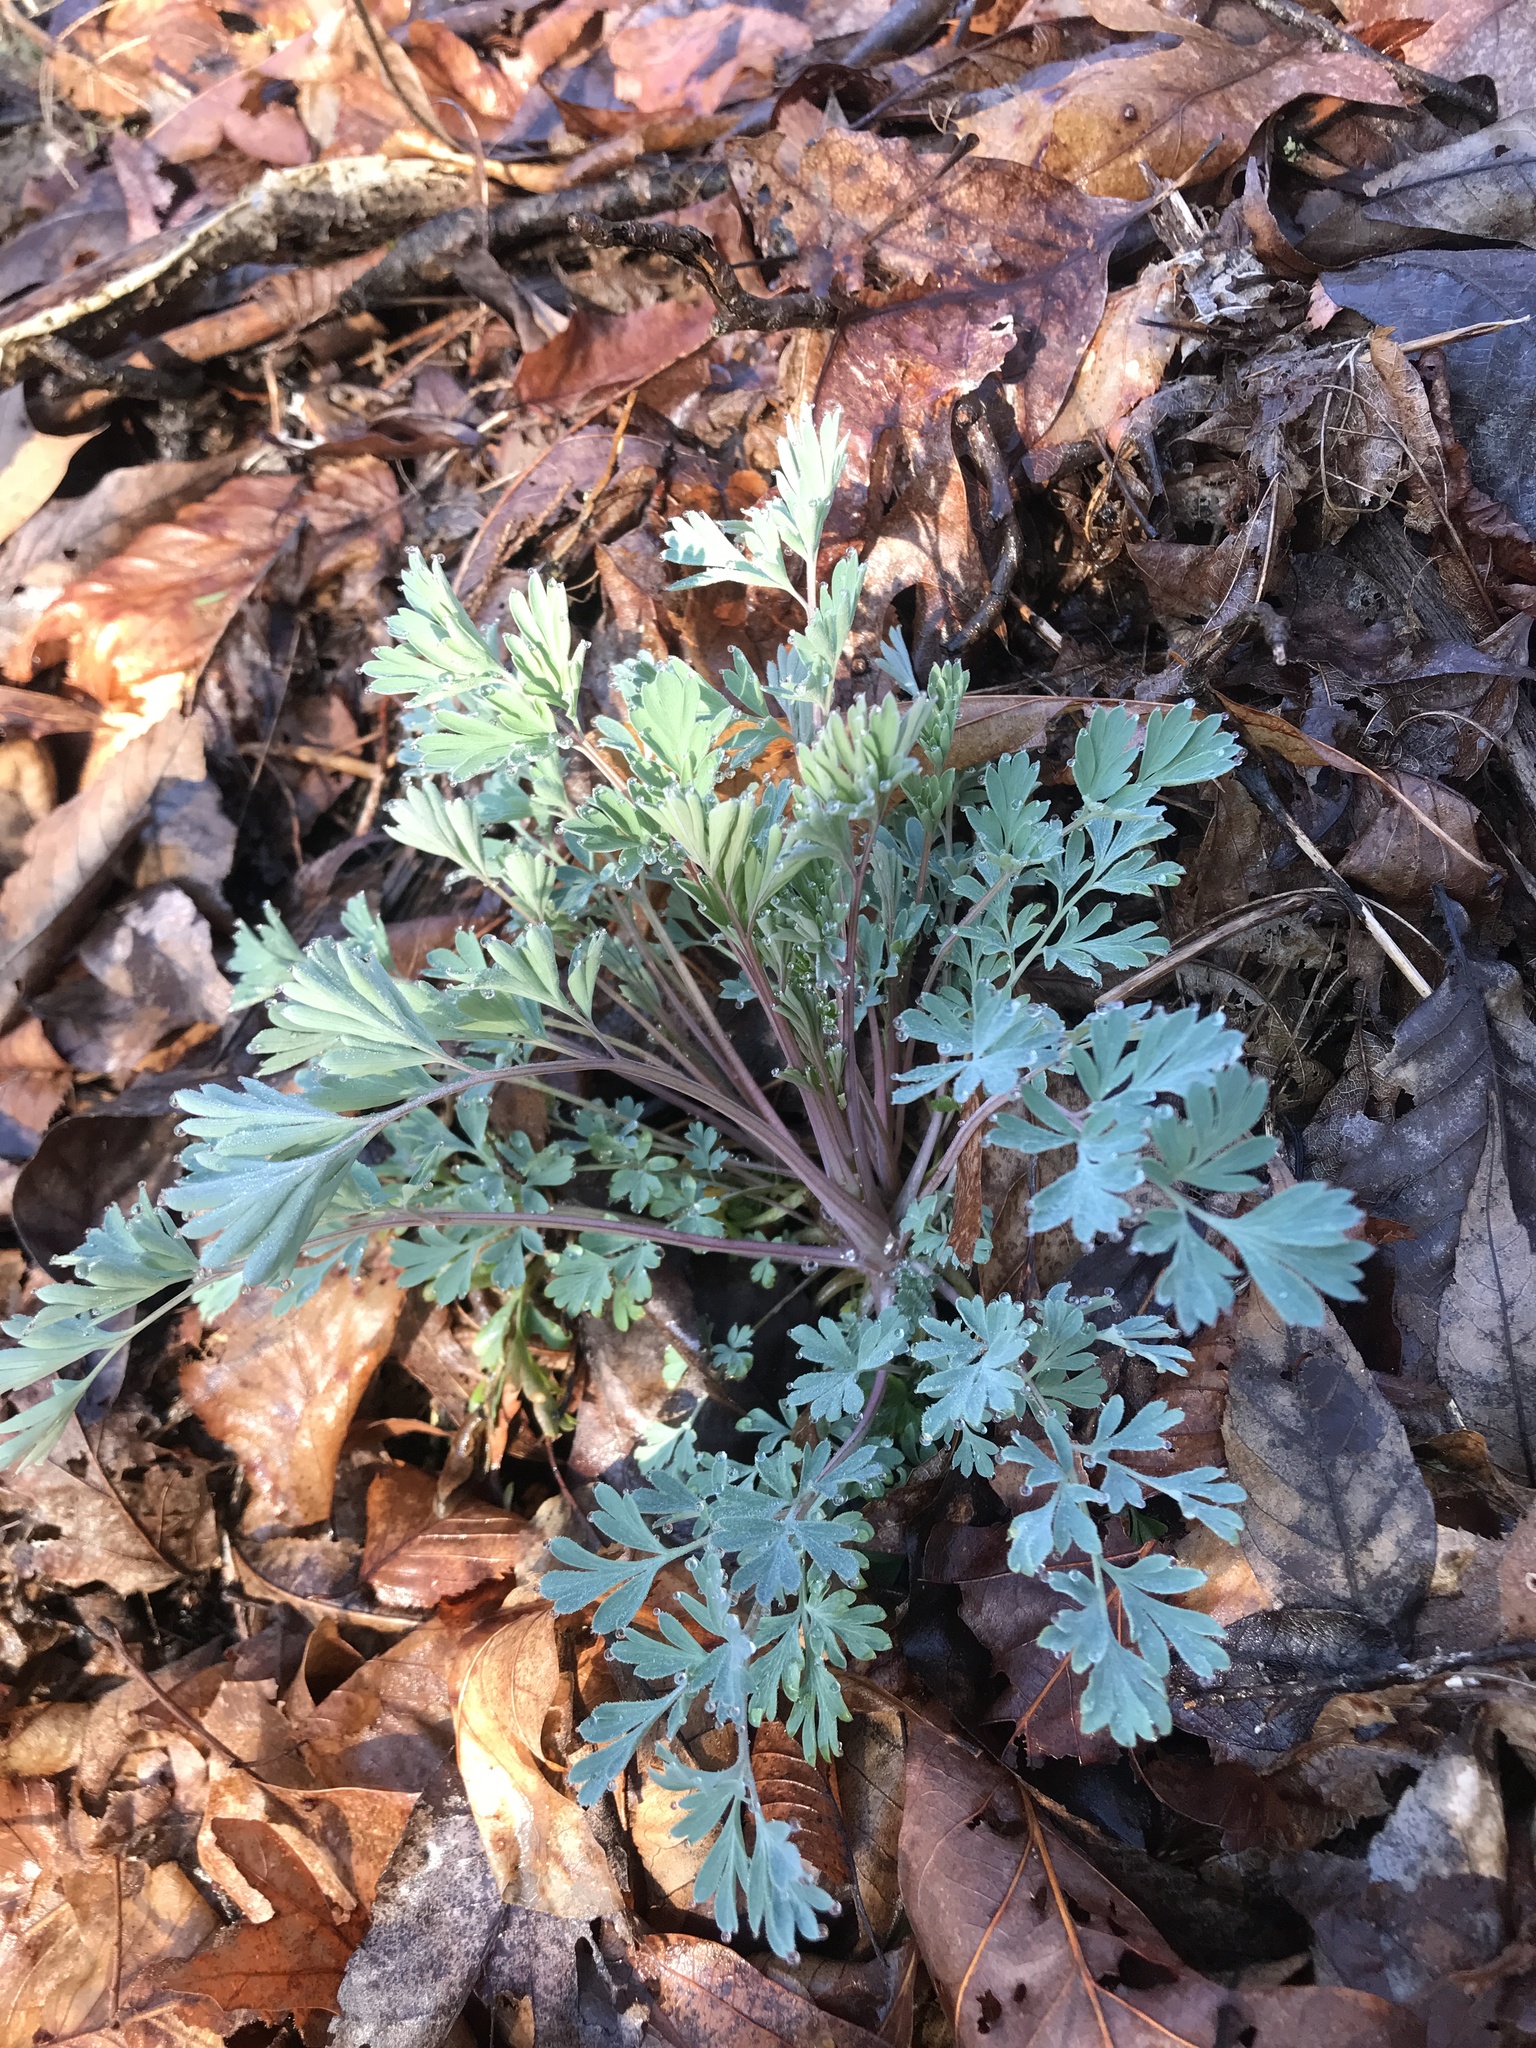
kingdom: Plantae
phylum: Tracheophyta
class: Magnoliopsida
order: Ranunculales
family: Papaveraceae
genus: Capnoides
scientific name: Capnoides sempervirens
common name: Rock harlequin
